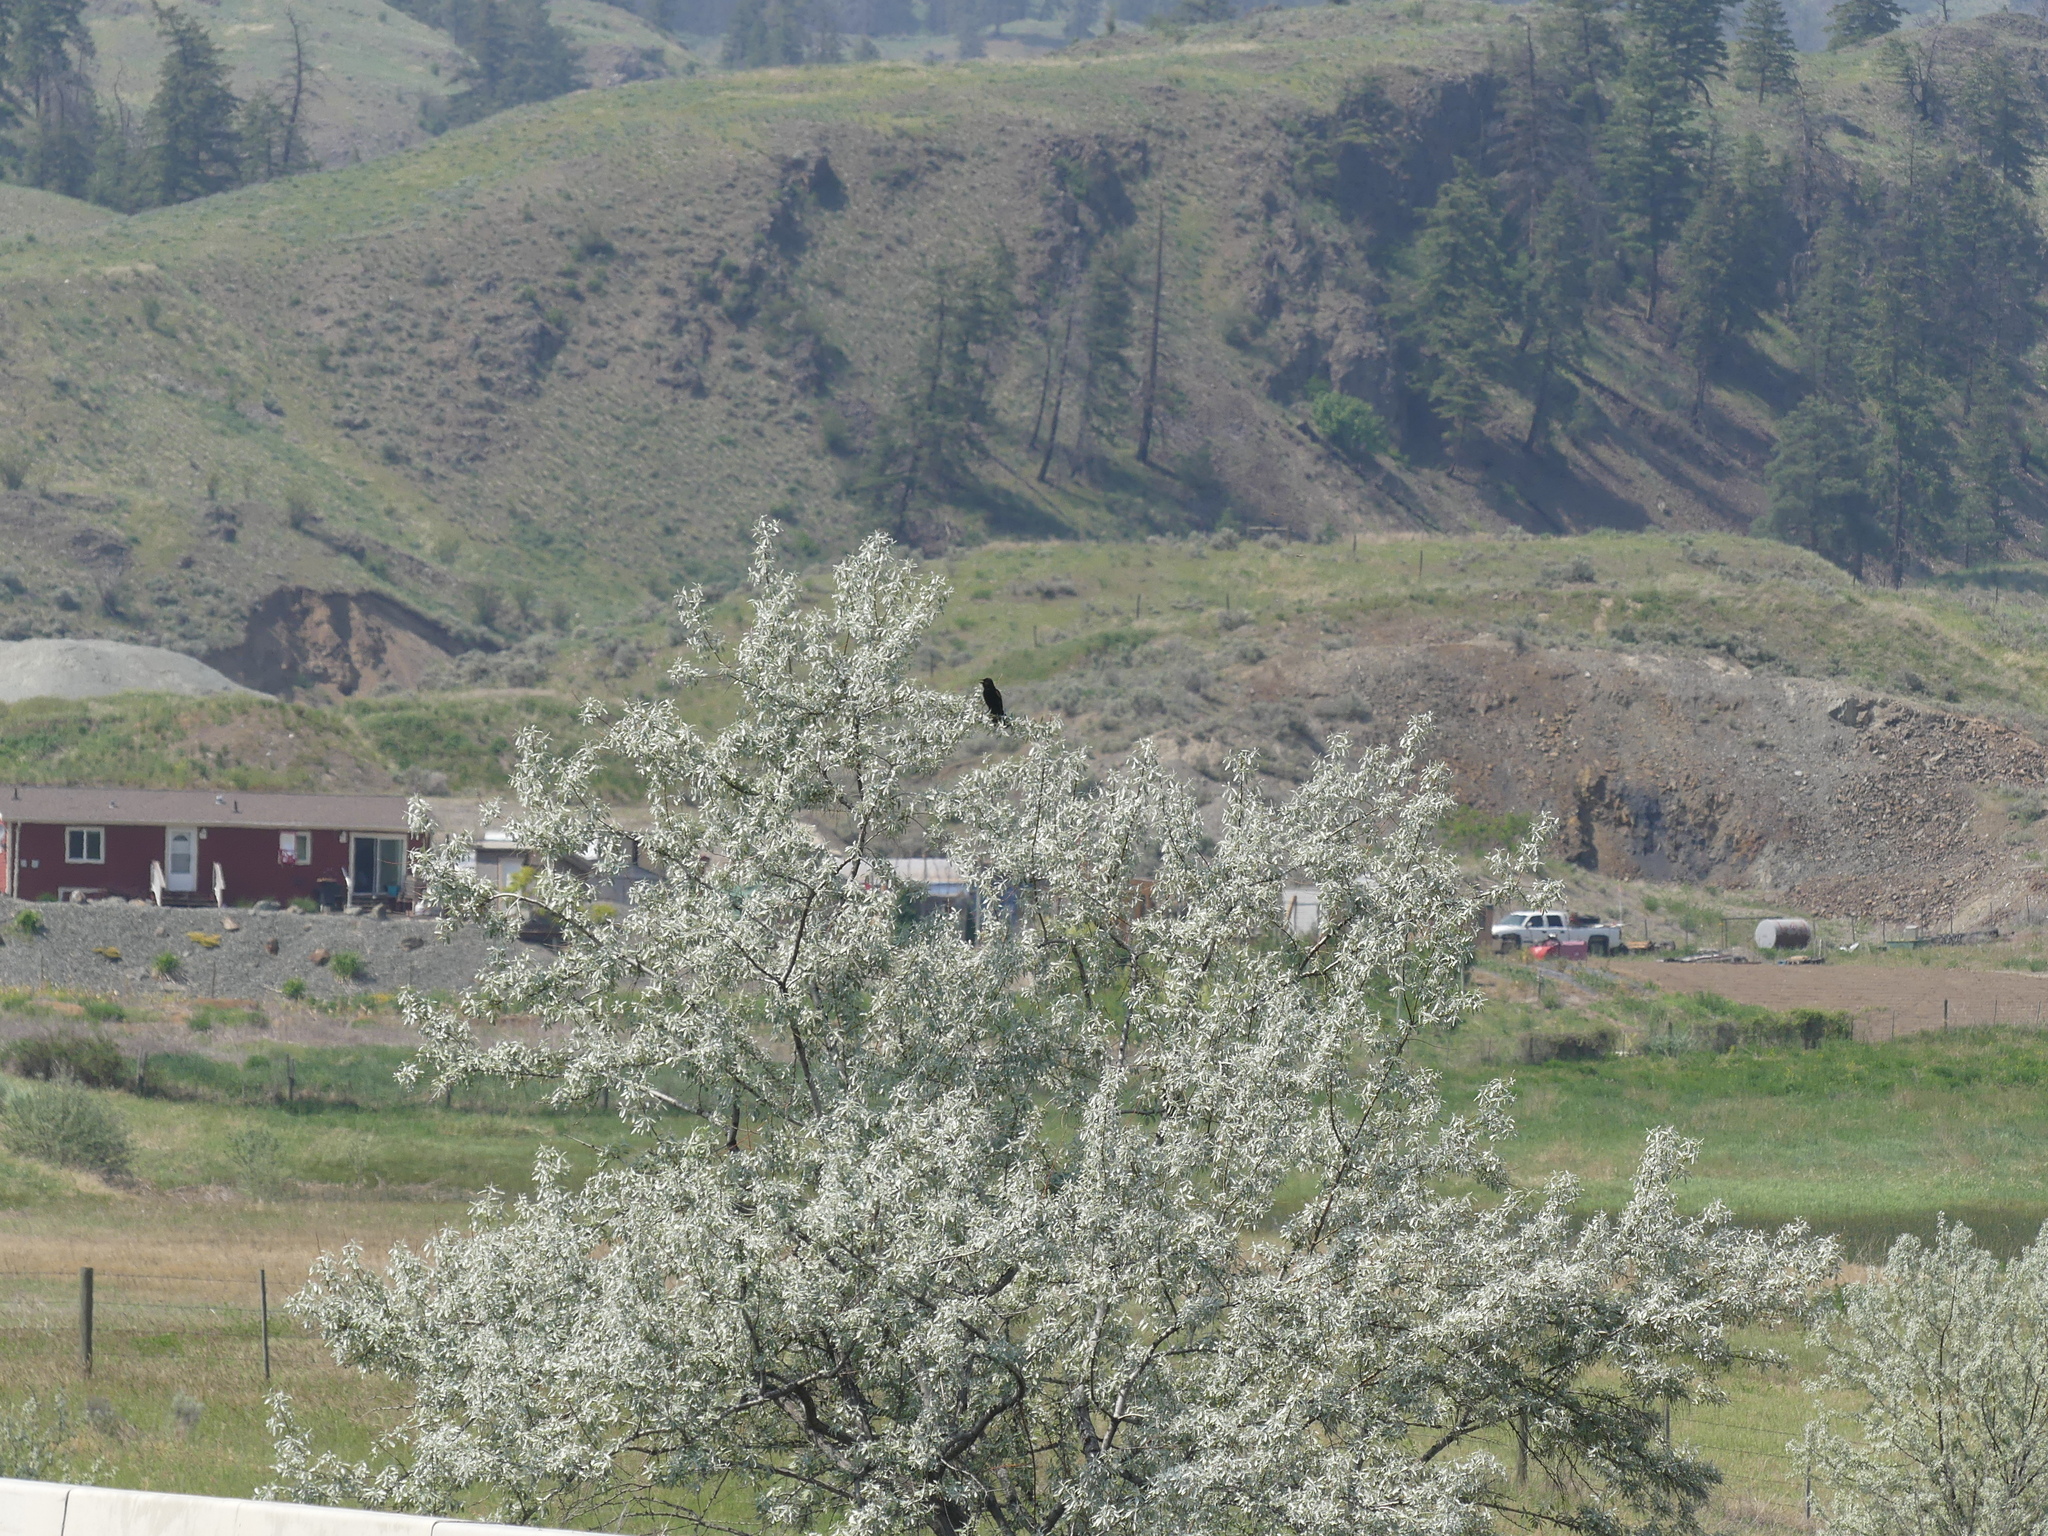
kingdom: Animalia
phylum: Chordata
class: Aves
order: Passeriformes
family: Icteridae
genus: Agelaius
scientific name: Agelaius phoeniceus
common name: Red-winged blackbird
